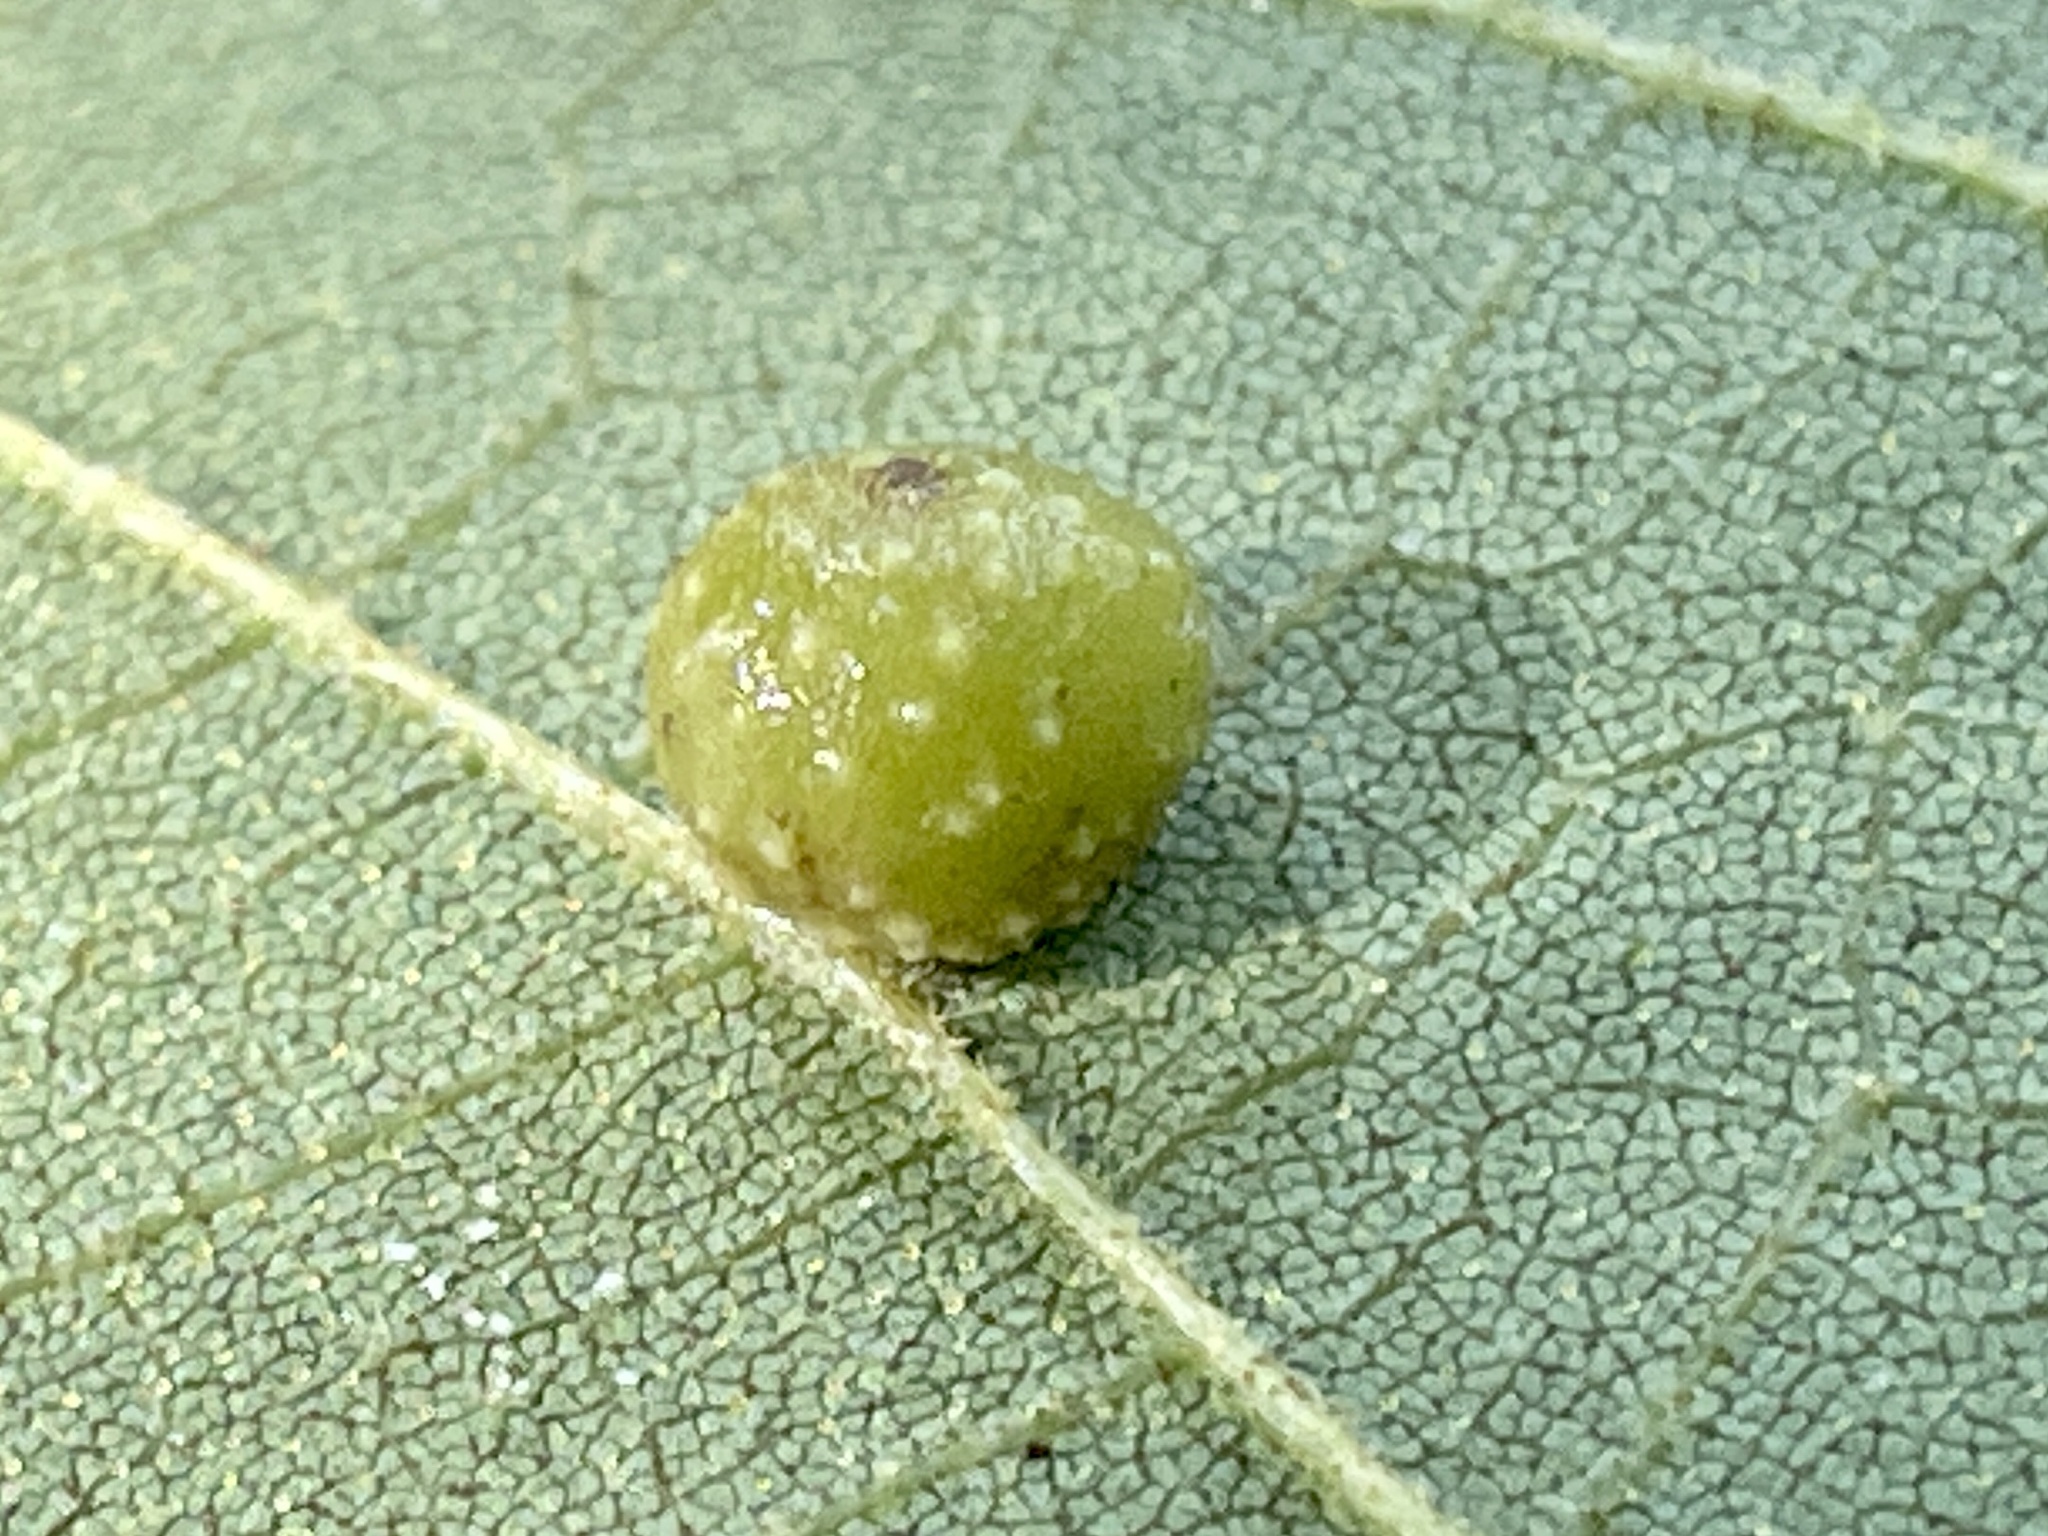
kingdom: Animalia
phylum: Arthropoda
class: Insecta
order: Diptera
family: Cecidomyiidae
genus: Caryomyia
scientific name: Caryomyia tuberculata
